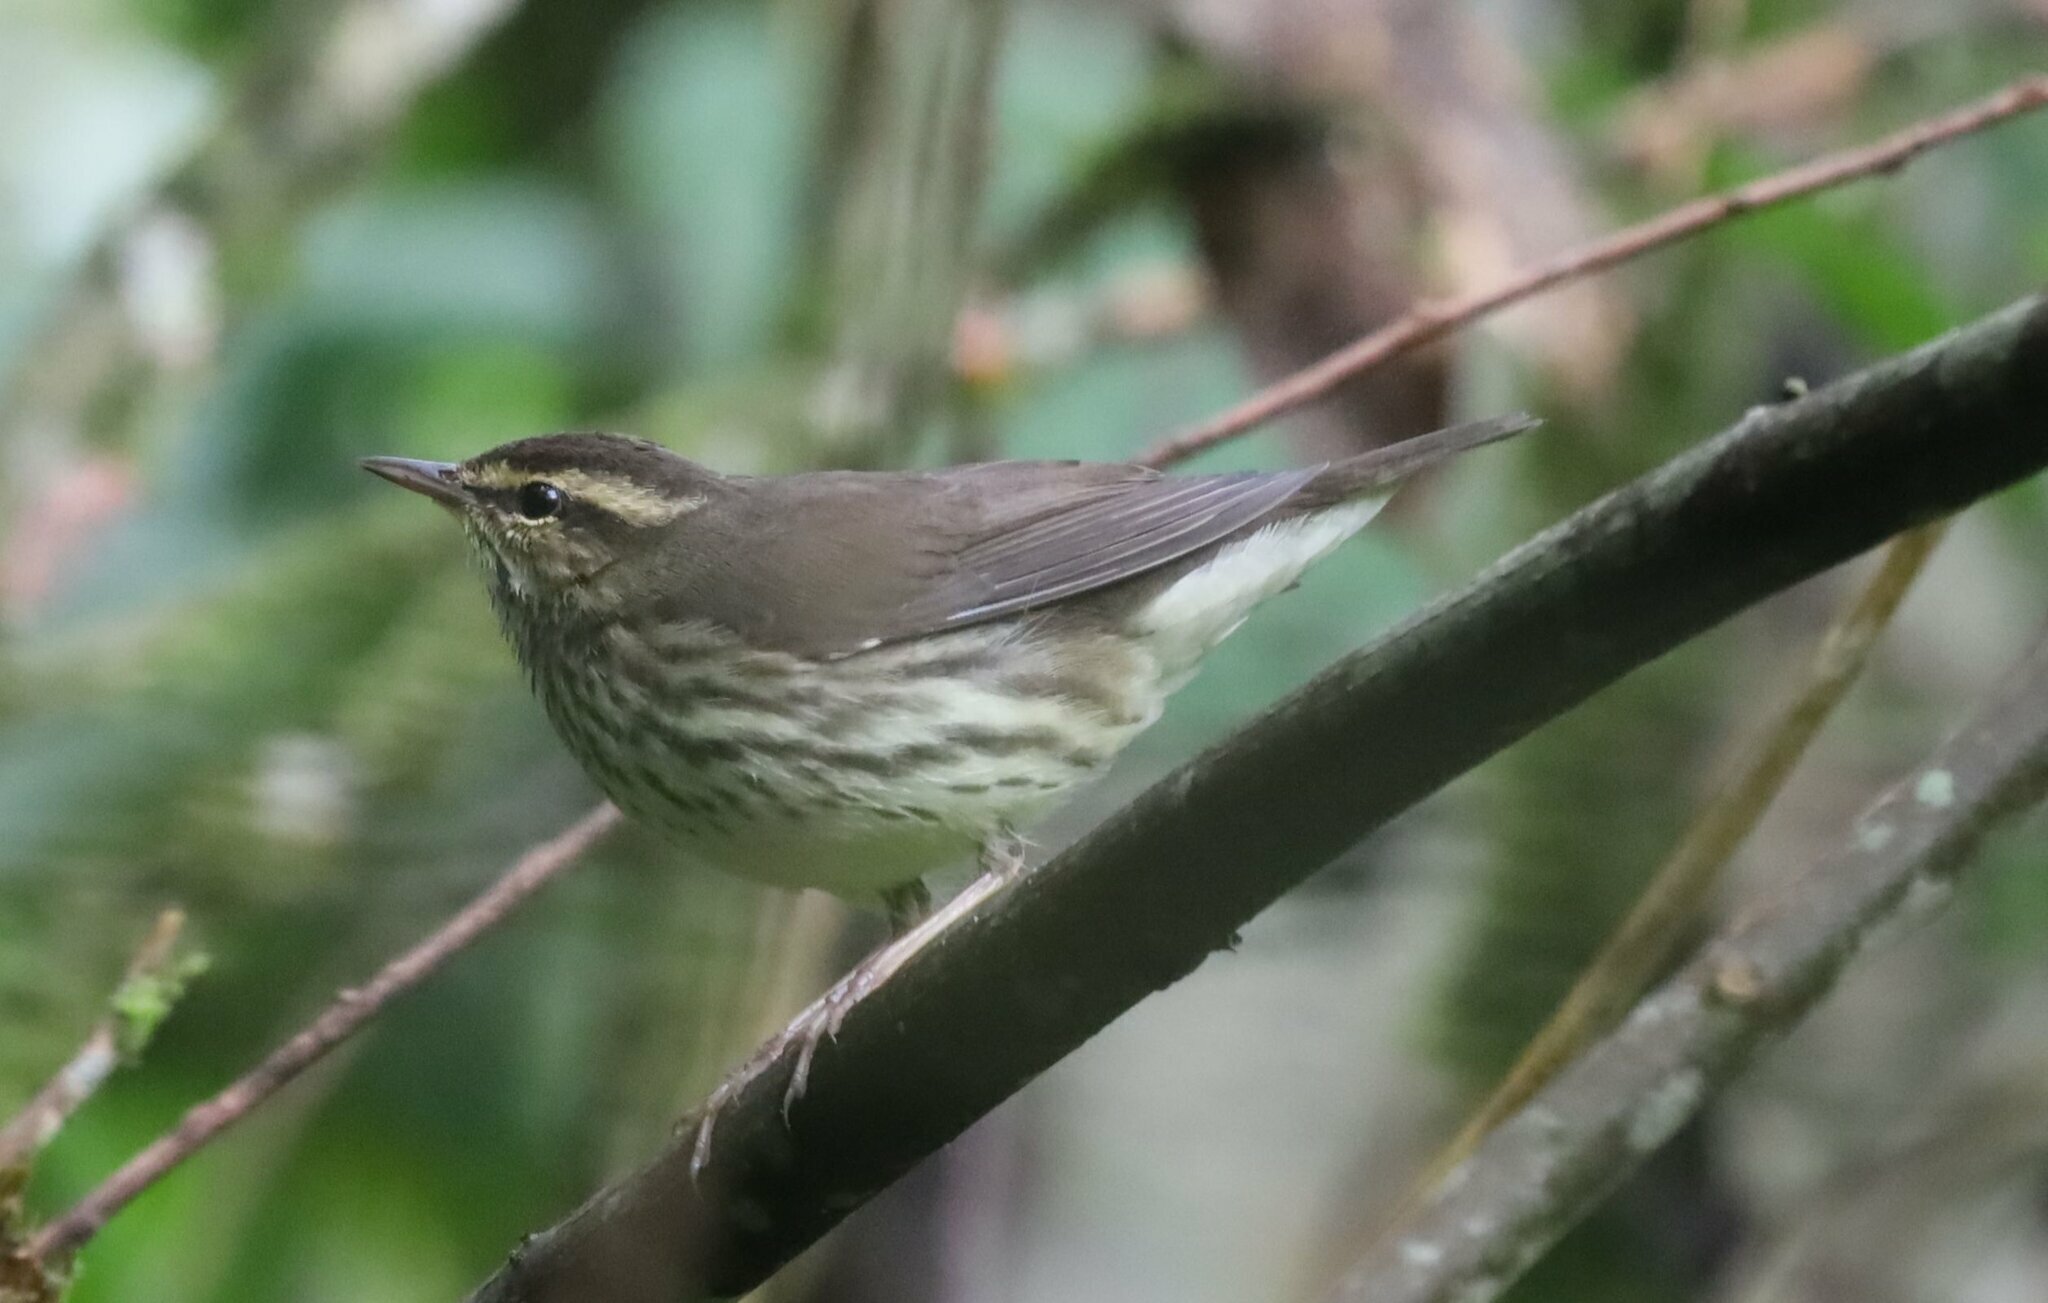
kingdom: Animalia
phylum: Chordata
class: Aves
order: Passeriformes
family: Parulidae
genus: Parkesia
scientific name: Parkesia noveboracensis
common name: Northern waterthrush
